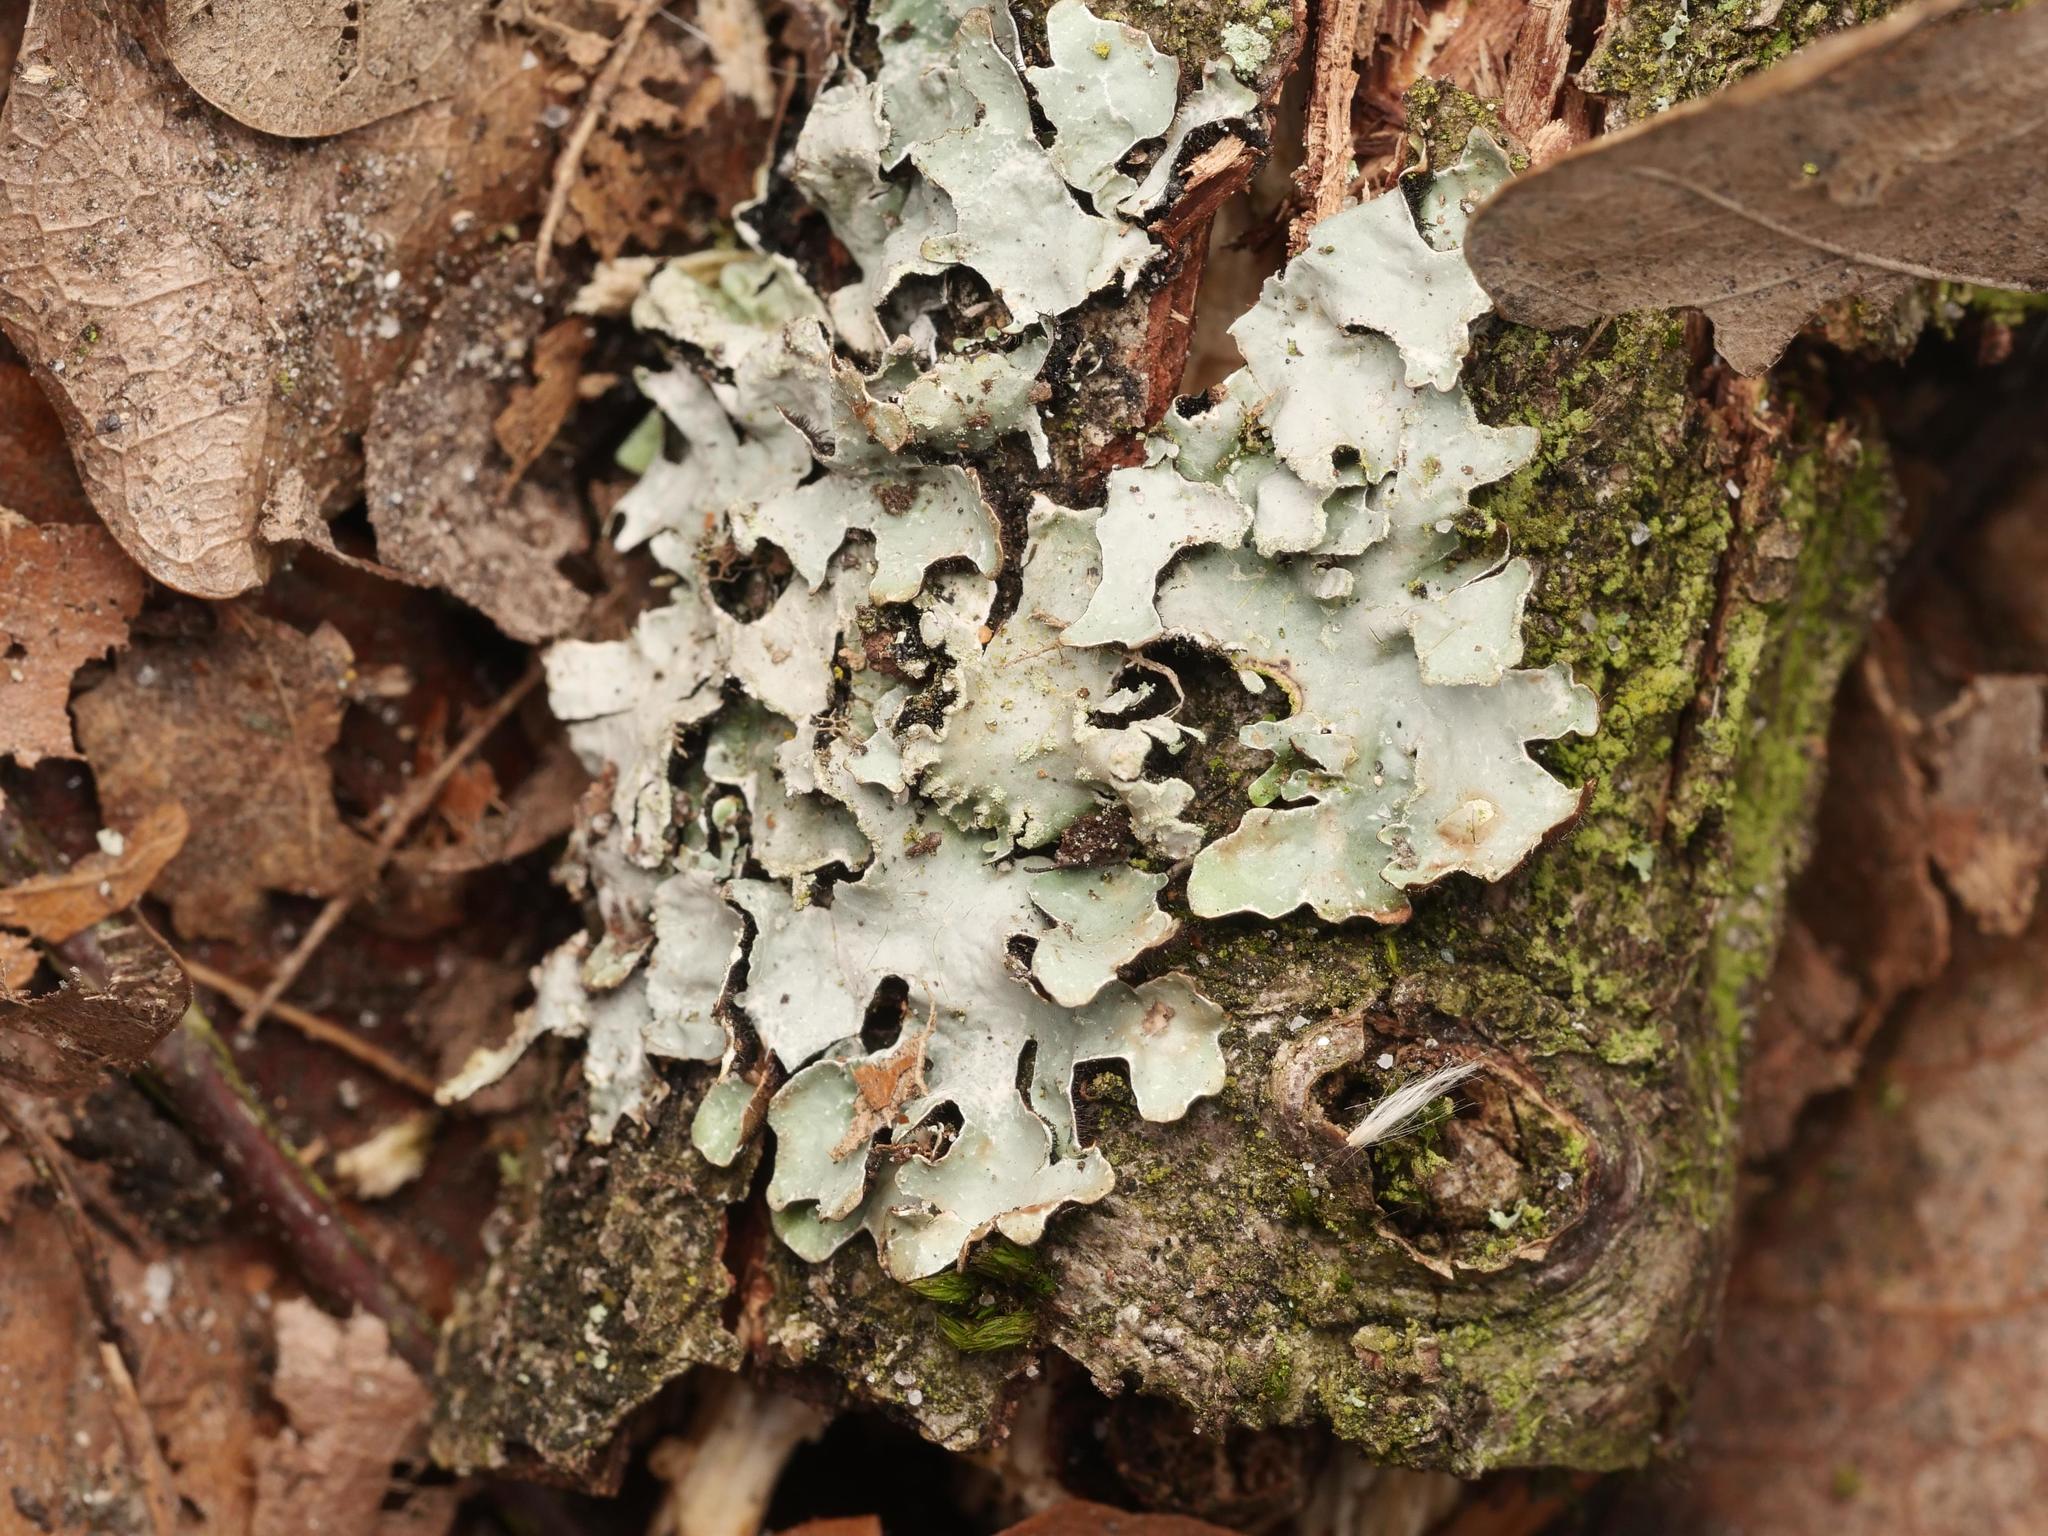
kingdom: Fungi
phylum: Ascomycota
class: Lecanoromycetes
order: Lecanorales
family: Parmeliaceae
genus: Parmelia
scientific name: Parmelia sulcata
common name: Netted shield lichen
